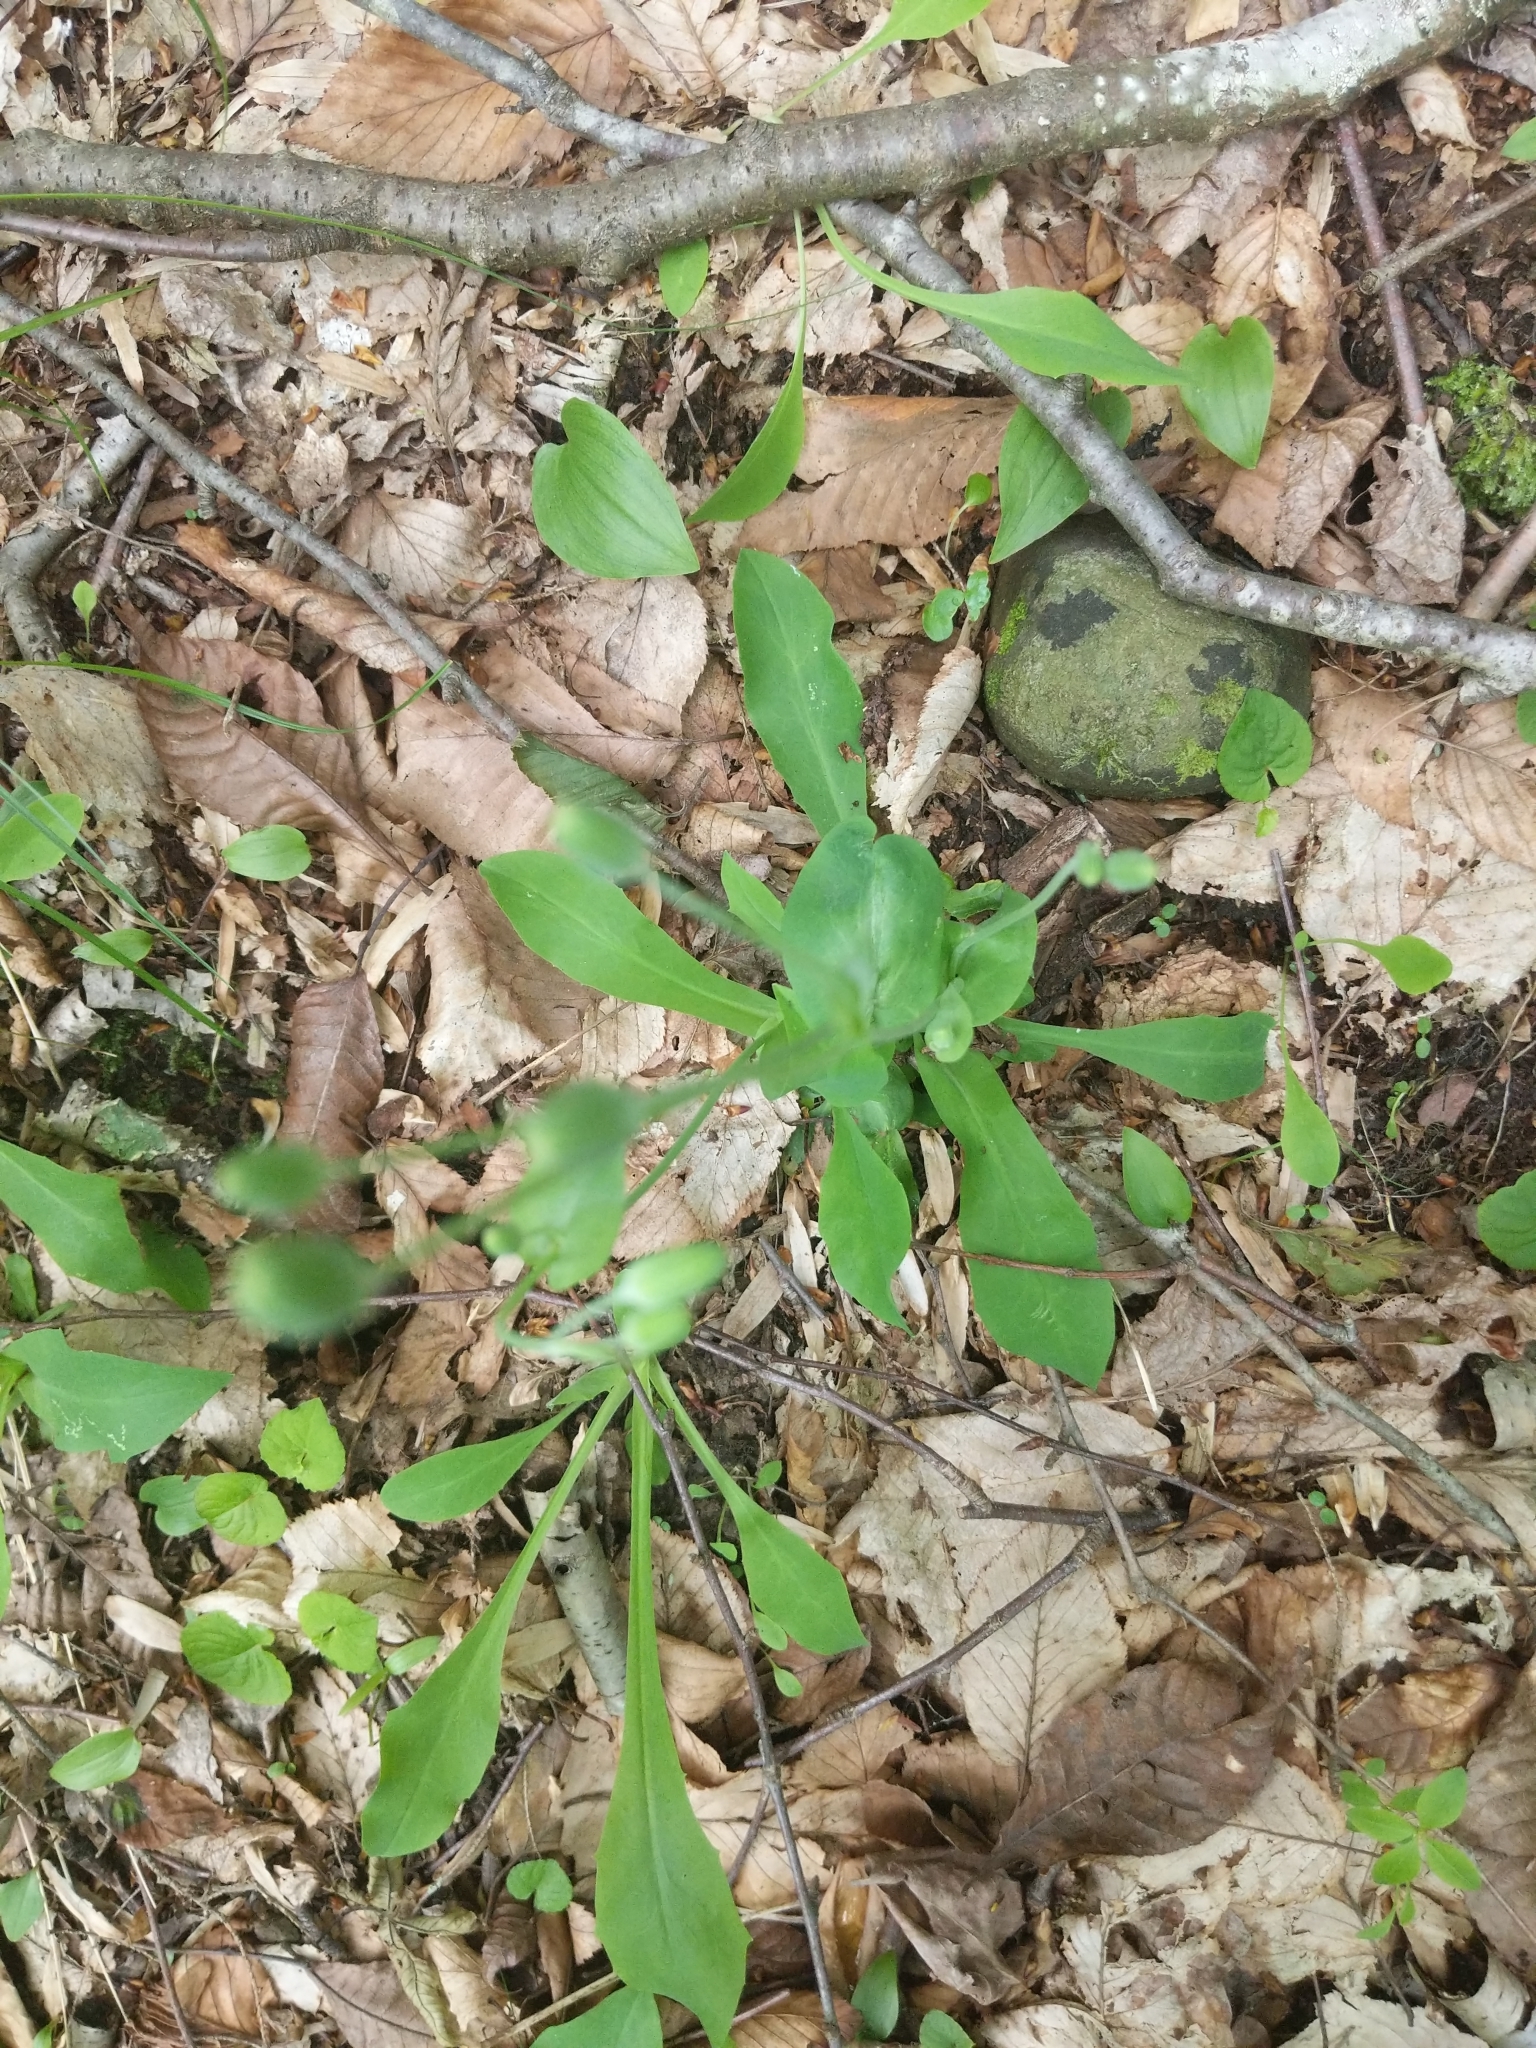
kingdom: Plantae
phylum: Tracheophyta
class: Magnoliopsida
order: Asterales
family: Asteraceae
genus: Krigia
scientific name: Krigia biflora
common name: Orange dwarf-dandelion
